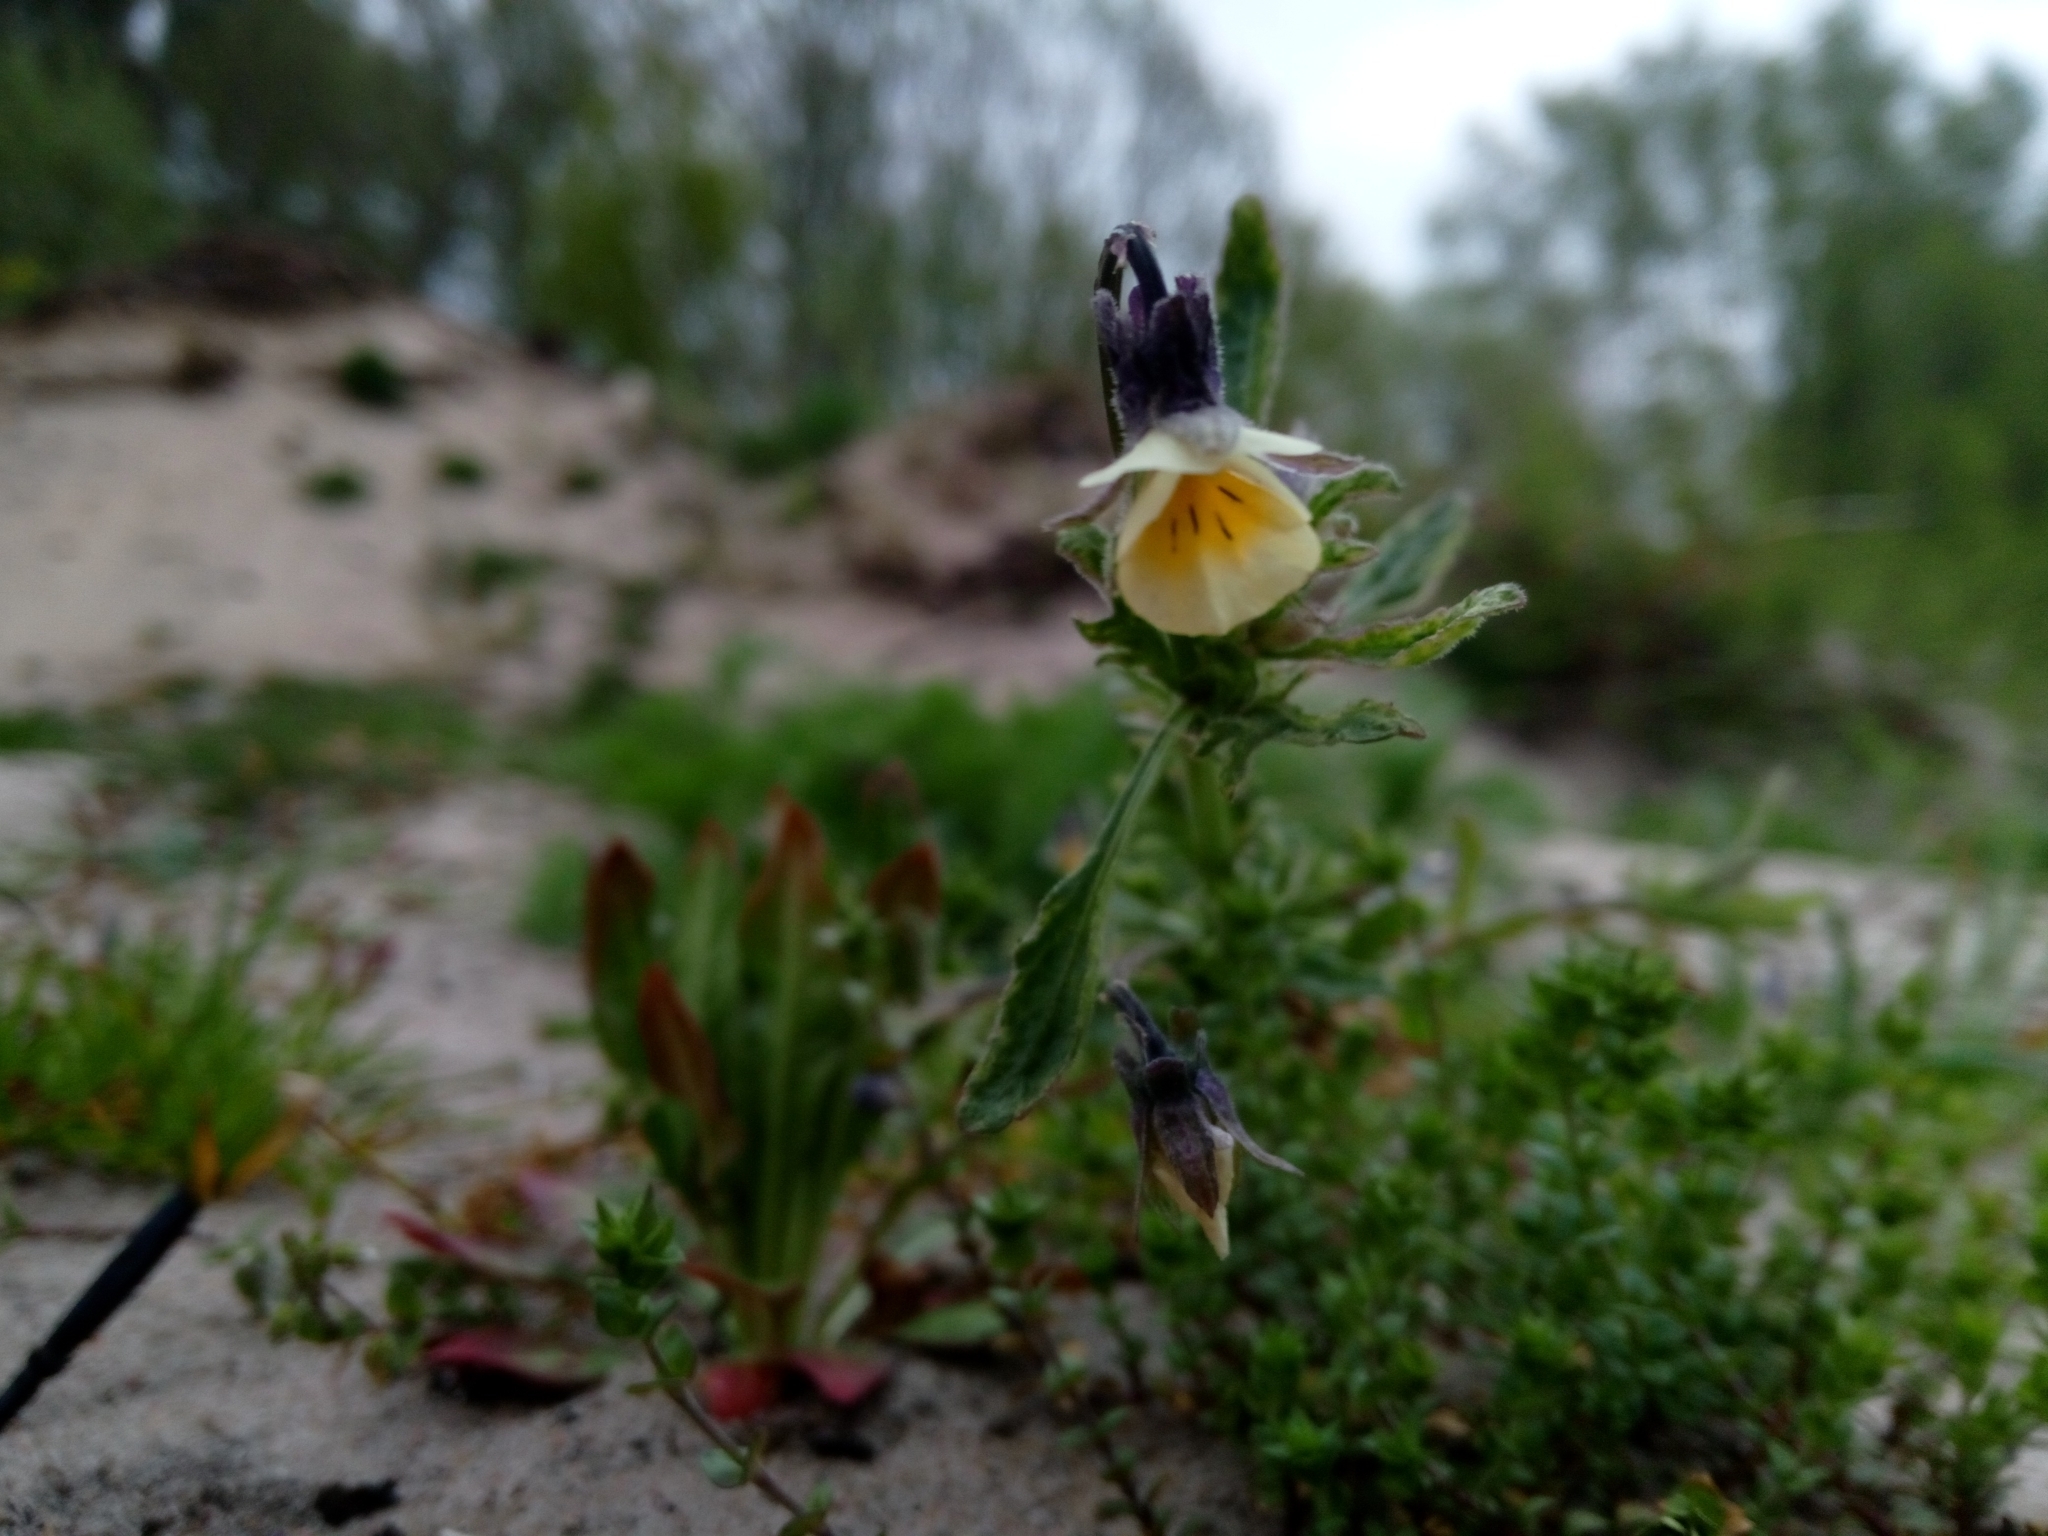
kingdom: Plantae
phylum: Tracheophyta
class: Magnoliopsida
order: Malpighiales
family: Violaceae
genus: Viola
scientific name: Viola arvensis
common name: Field pansy
